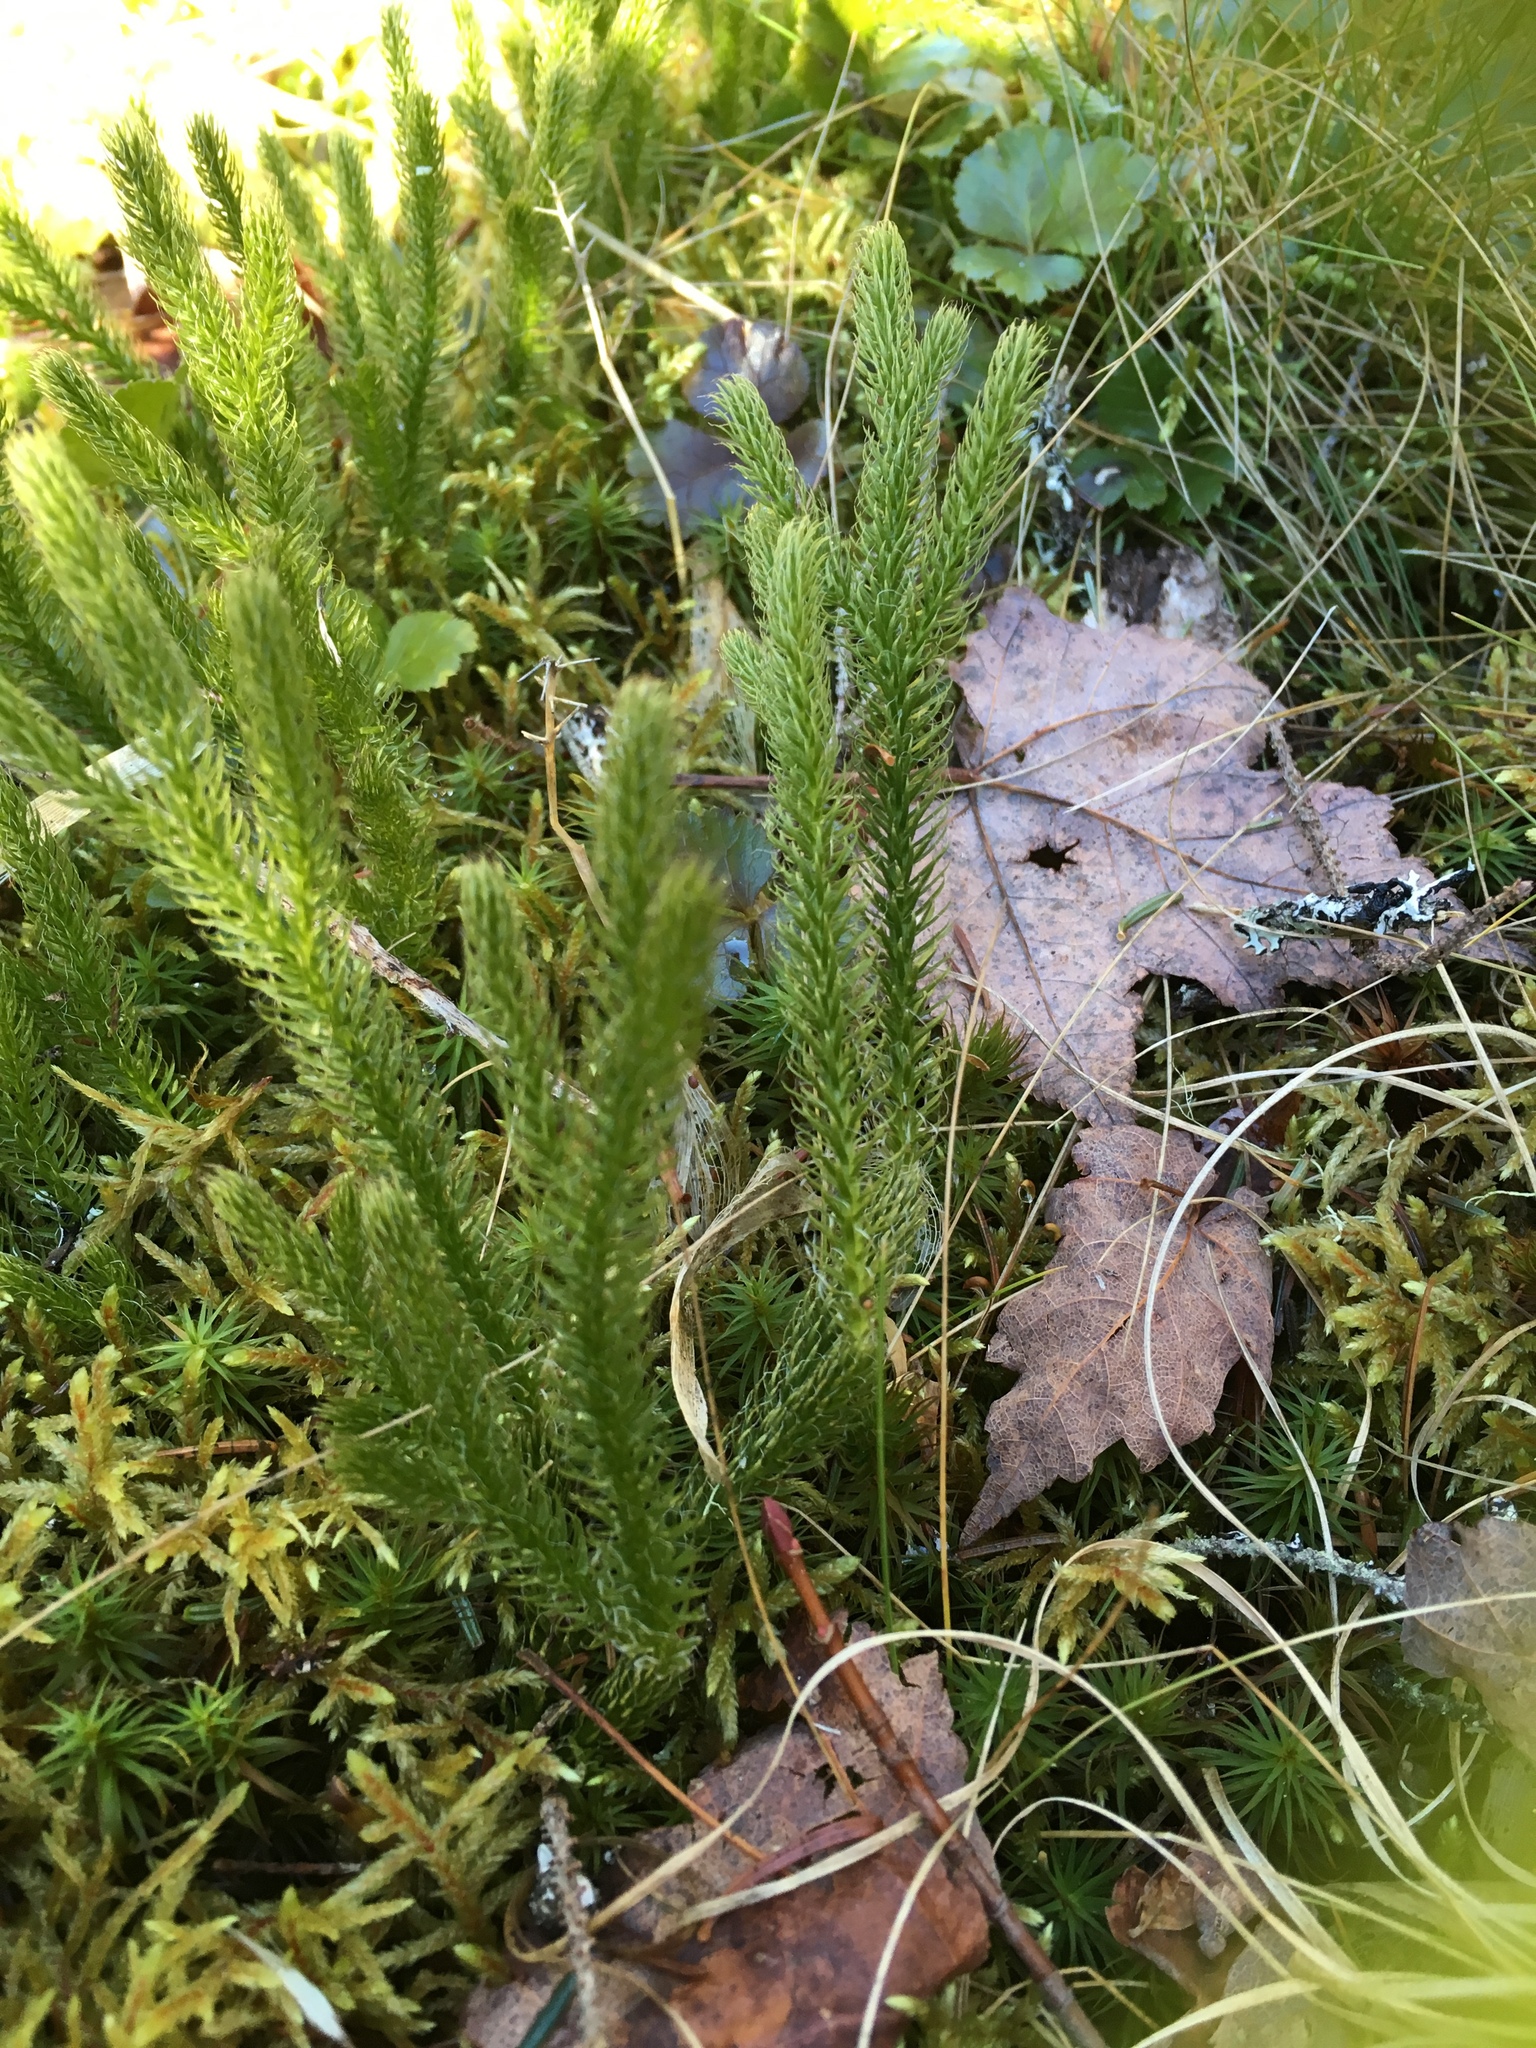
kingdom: Plantae
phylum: Tracheophyta
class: Lycopodiopsida
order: Lycopodiales
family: Lycopodiaceae
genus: Lycopodium
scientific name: Lycopodium clavatum
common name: Stag's-horn clubmoss
